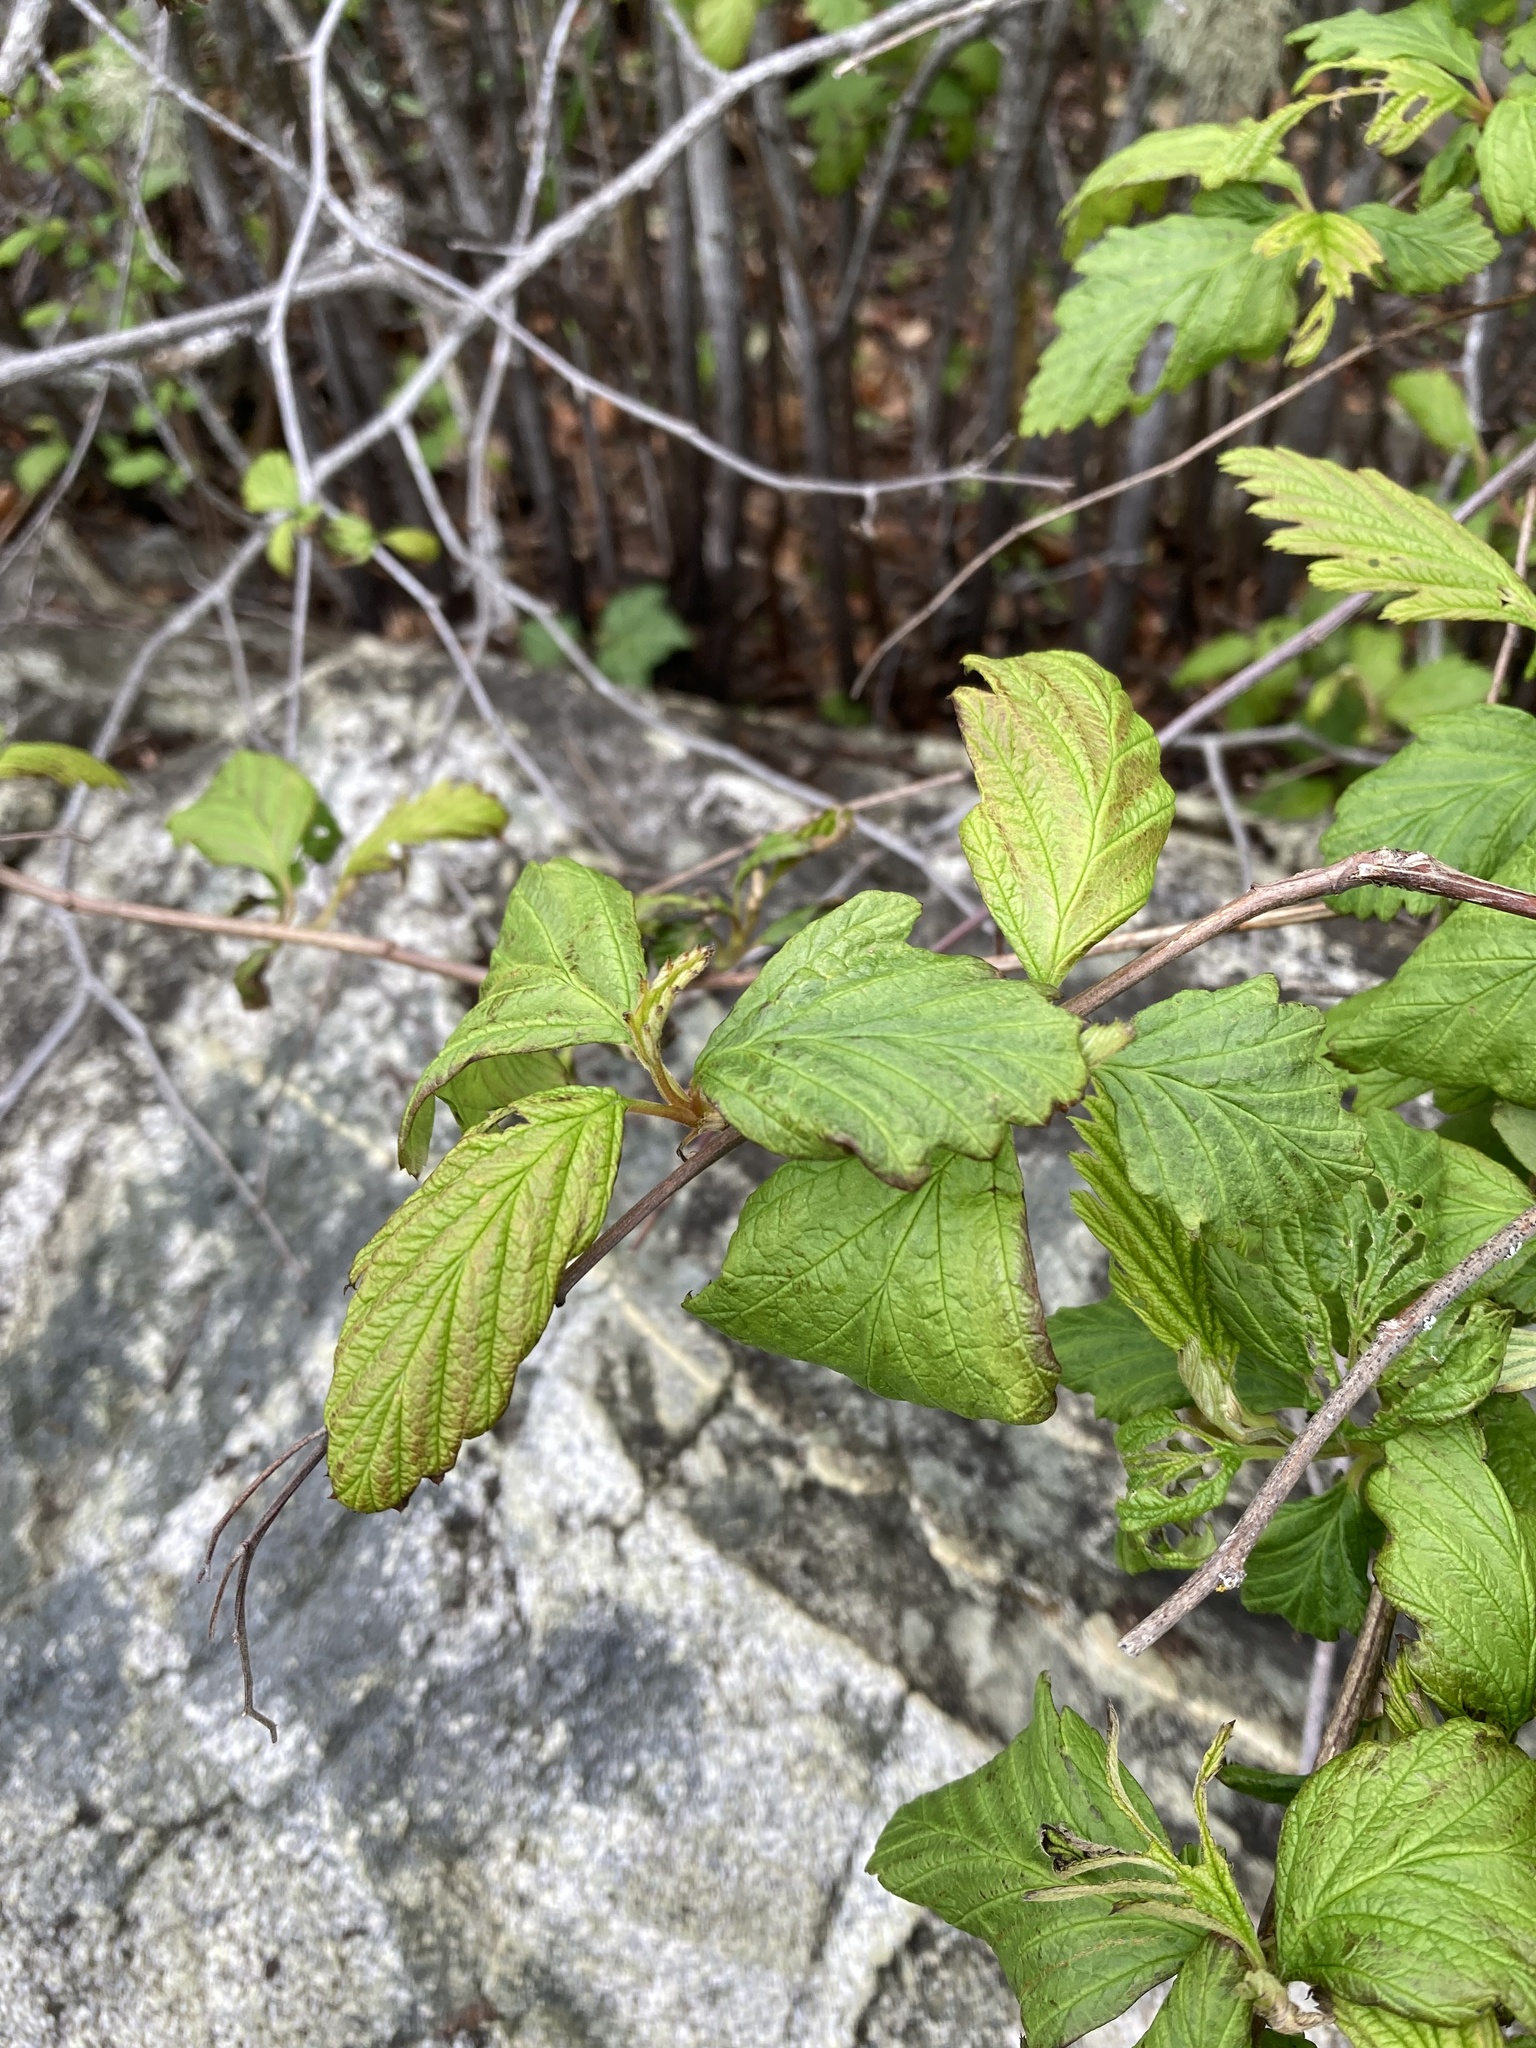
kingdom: Plantae
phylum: Tracheophyta
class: Magnoliopsida
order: Rosales
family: Rosaceae
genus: Holodiscus
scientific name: Holodiscus discolor
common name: Oceanspray
